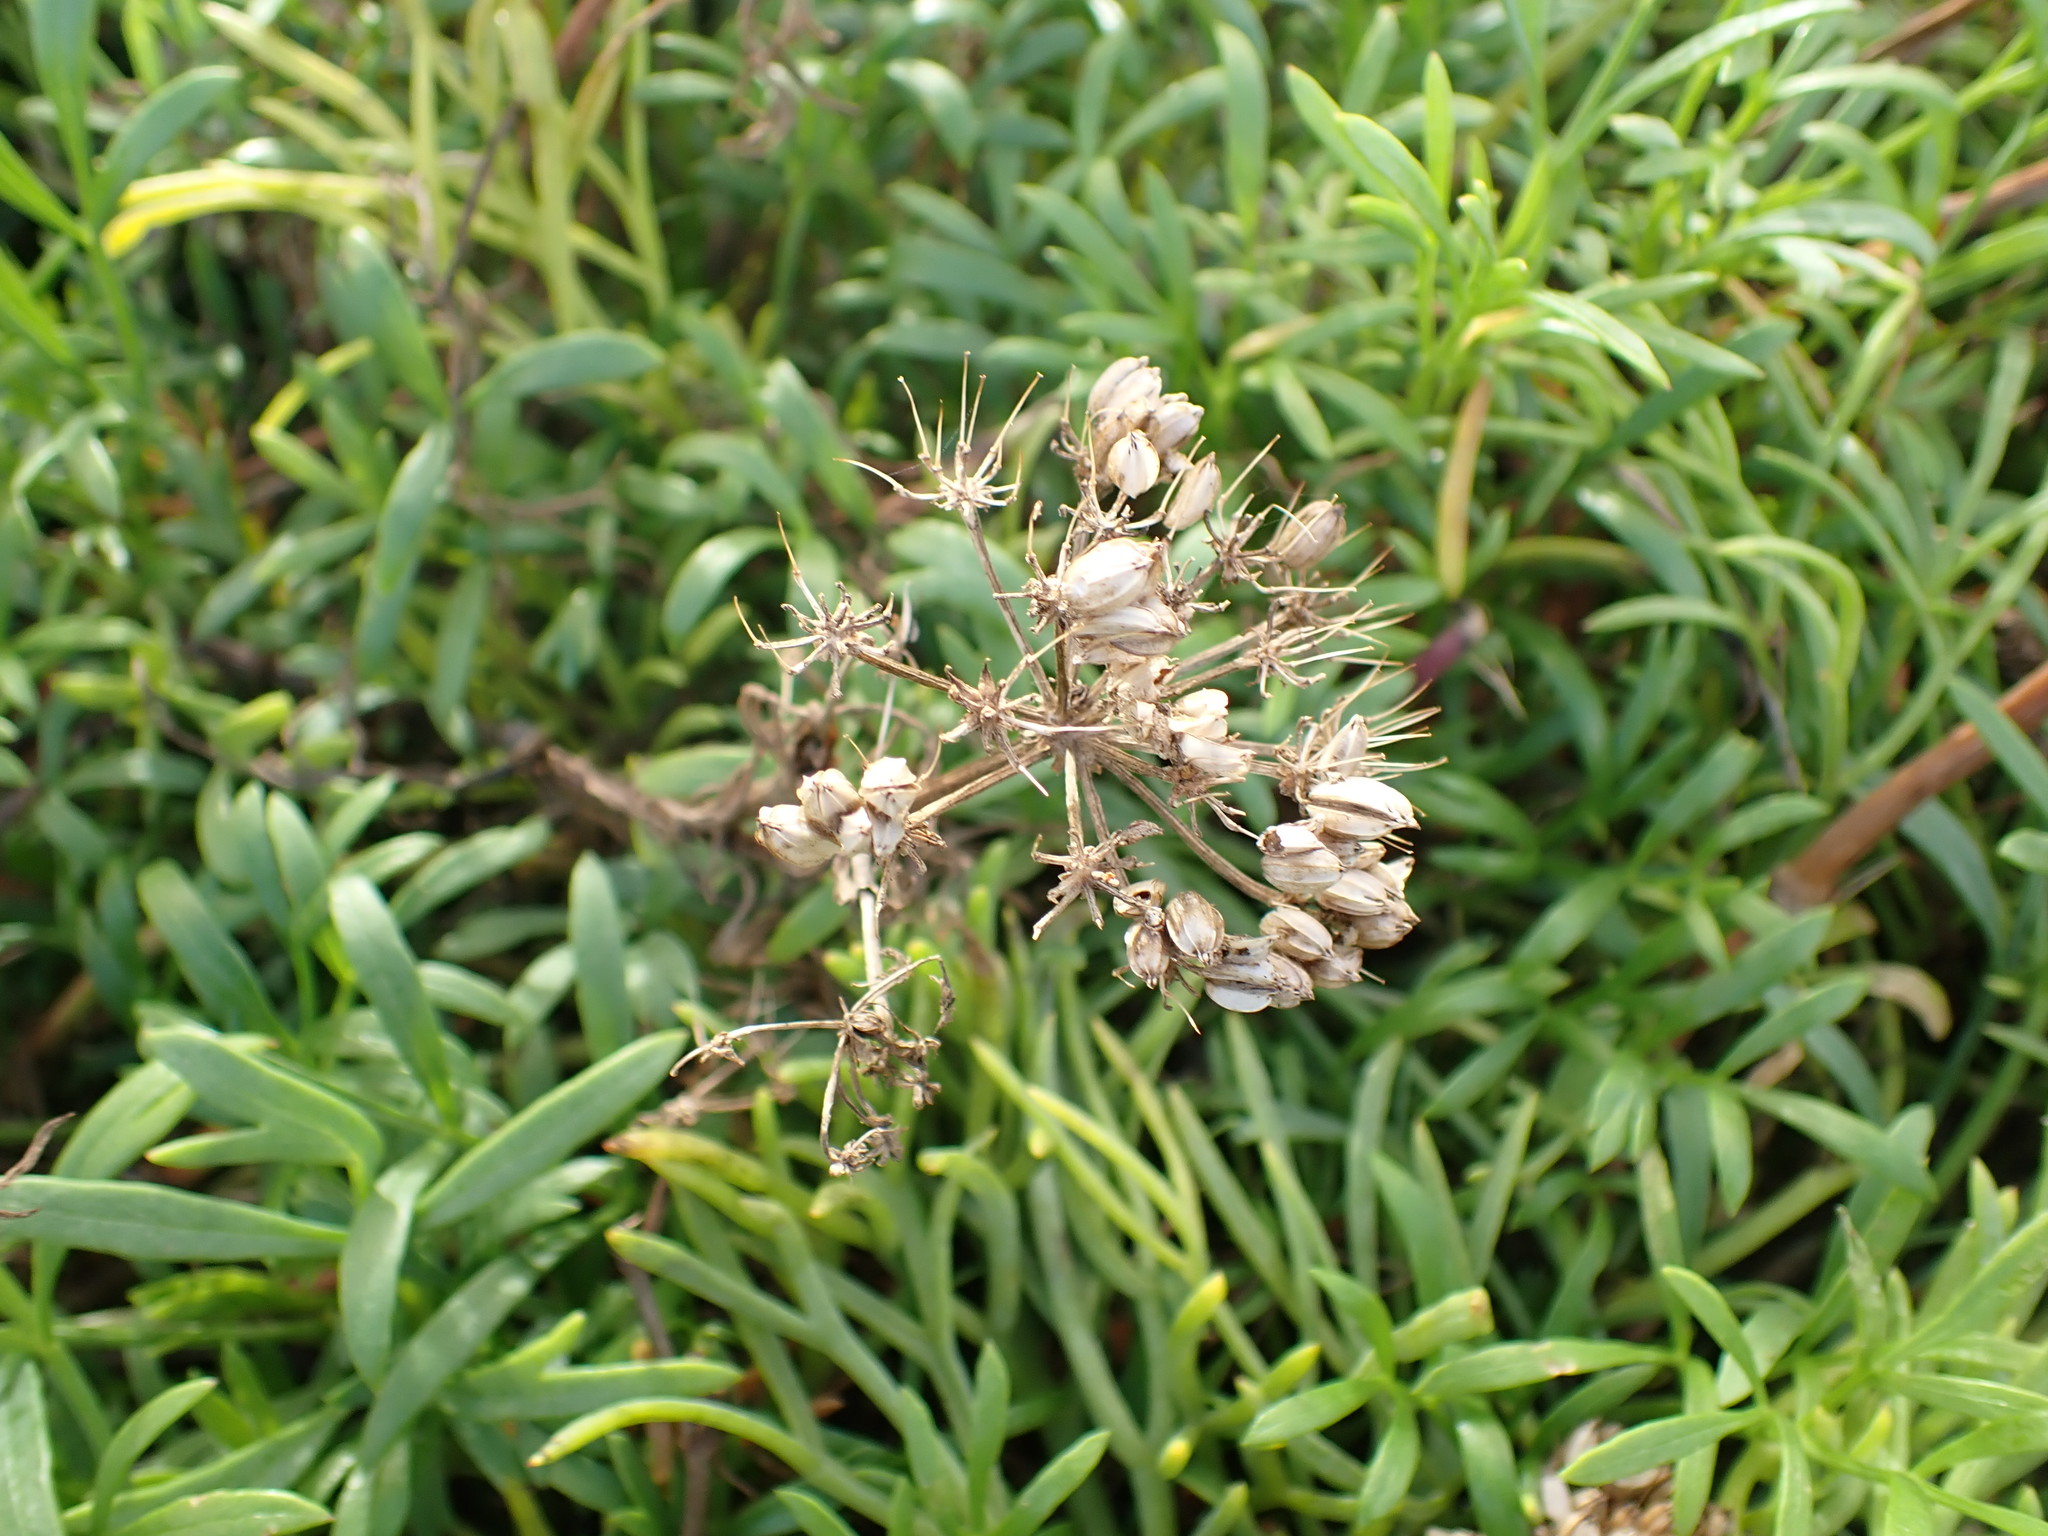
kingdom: Plantae
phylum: Tracheophyta
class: Magnoliopsida
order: Apiales
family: Apiaceae
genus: Crithmum
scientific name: Crithmum maritimum
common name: Rock samphire
